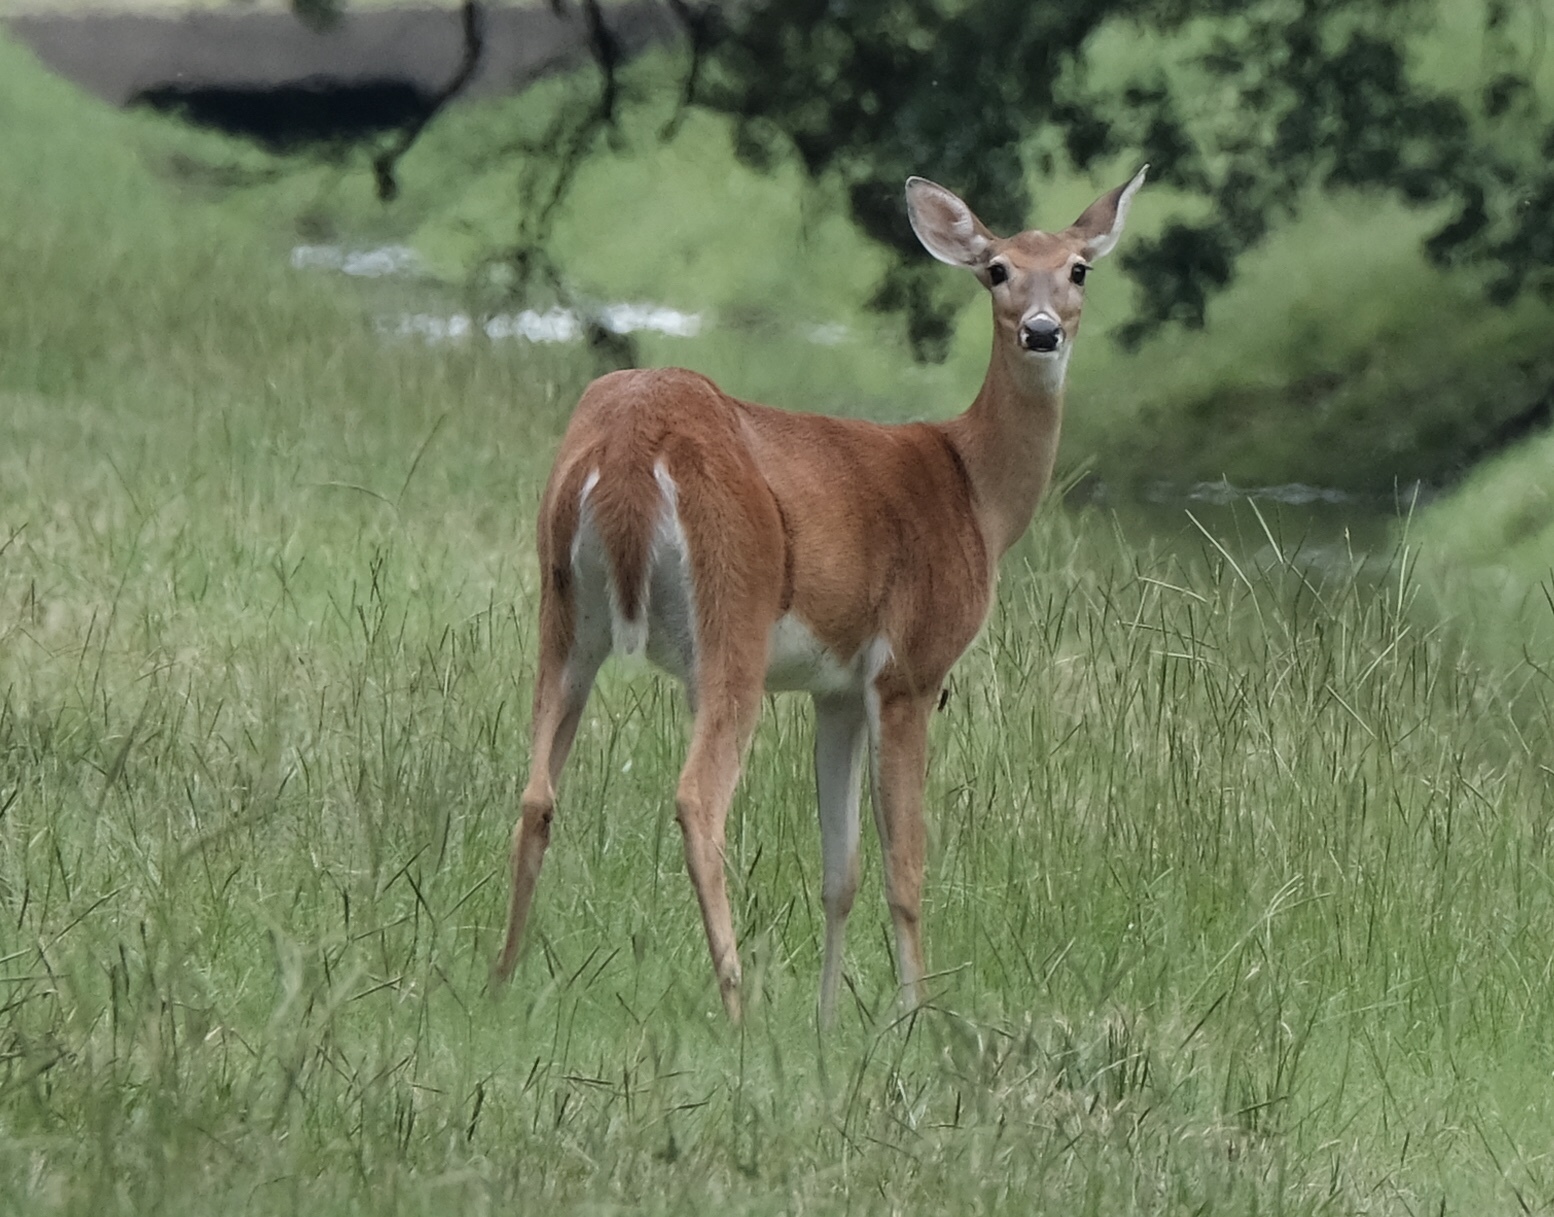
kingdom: Animalia
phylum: Chordata
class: Mammalia
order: Artiodactyla
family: Cervidae
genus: Odocoileus
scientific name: Odocoileus virginianus
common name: White-tailed deer
